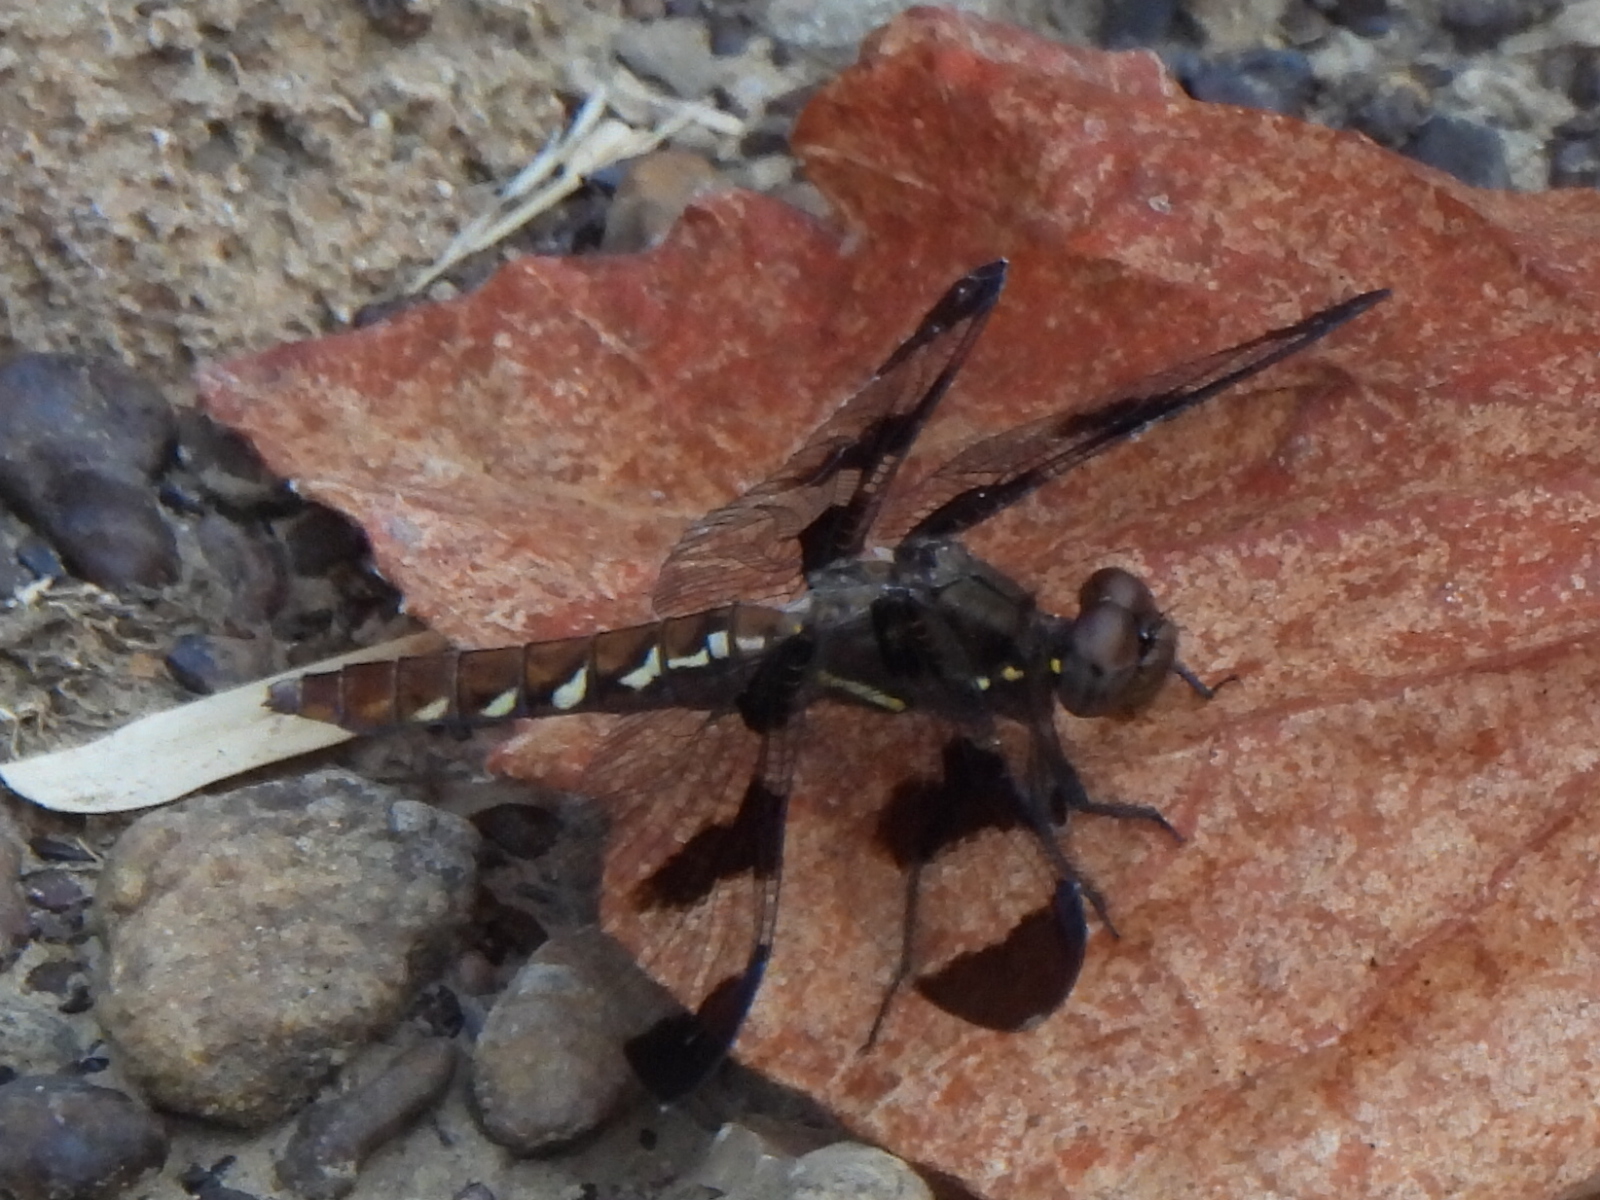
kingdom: Animalia
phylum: Arthropoda
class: Insecta
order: Odonata
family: Libellulidae
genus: Plathemis
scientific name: Plathemis lydia
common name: Common whitetail
